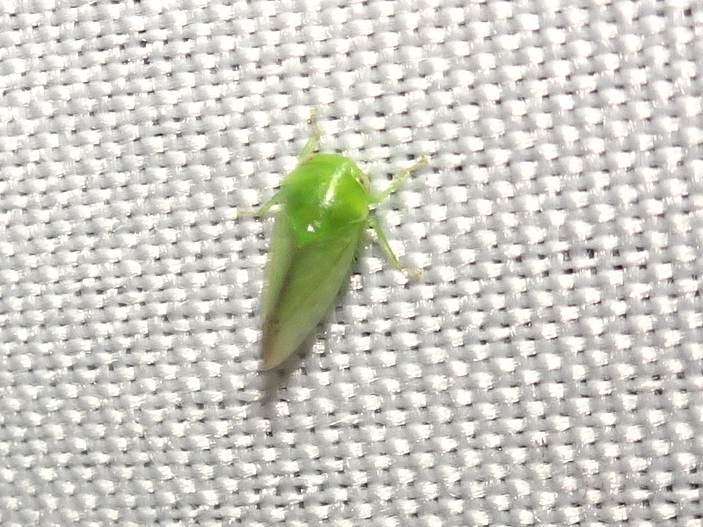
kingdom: Animalia
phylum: Arthropoda
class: Insecta
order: Hemiptera
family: Cicadellidae
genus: Stragania
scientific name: Stragania alabamensis
